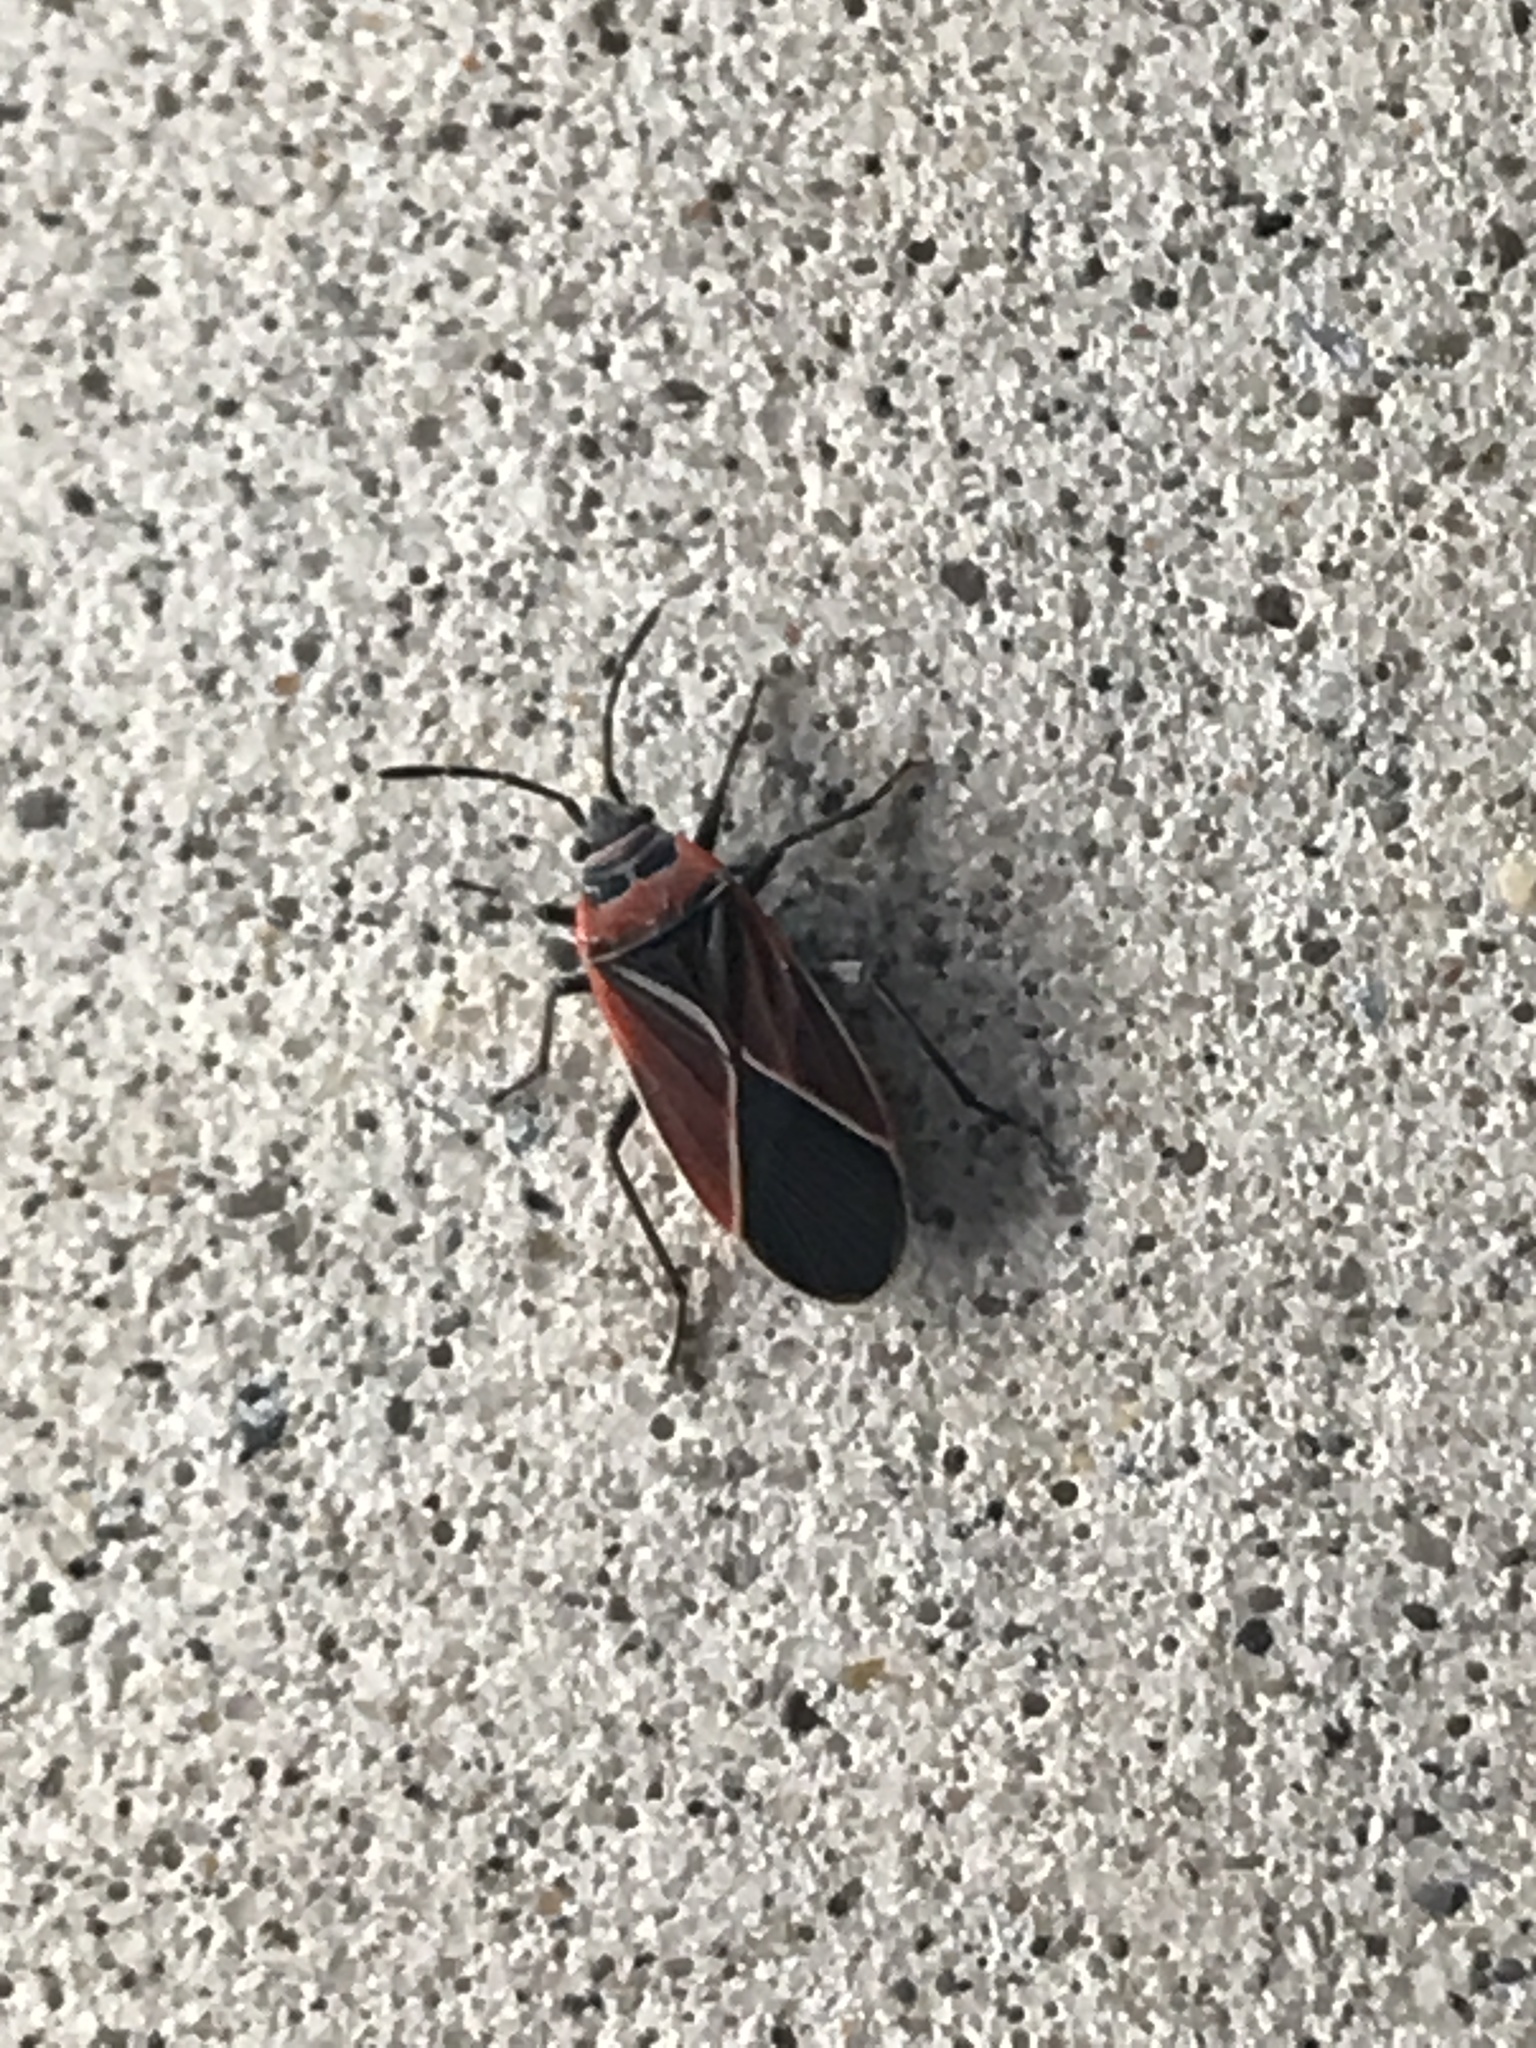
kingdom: Animalia
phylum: Arthropoda
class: Insecta
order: Hemiptera
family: Lygaeidae
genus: Neacoryphus
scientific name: Neacoryphus bicrucis
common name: Lygaeid bug
